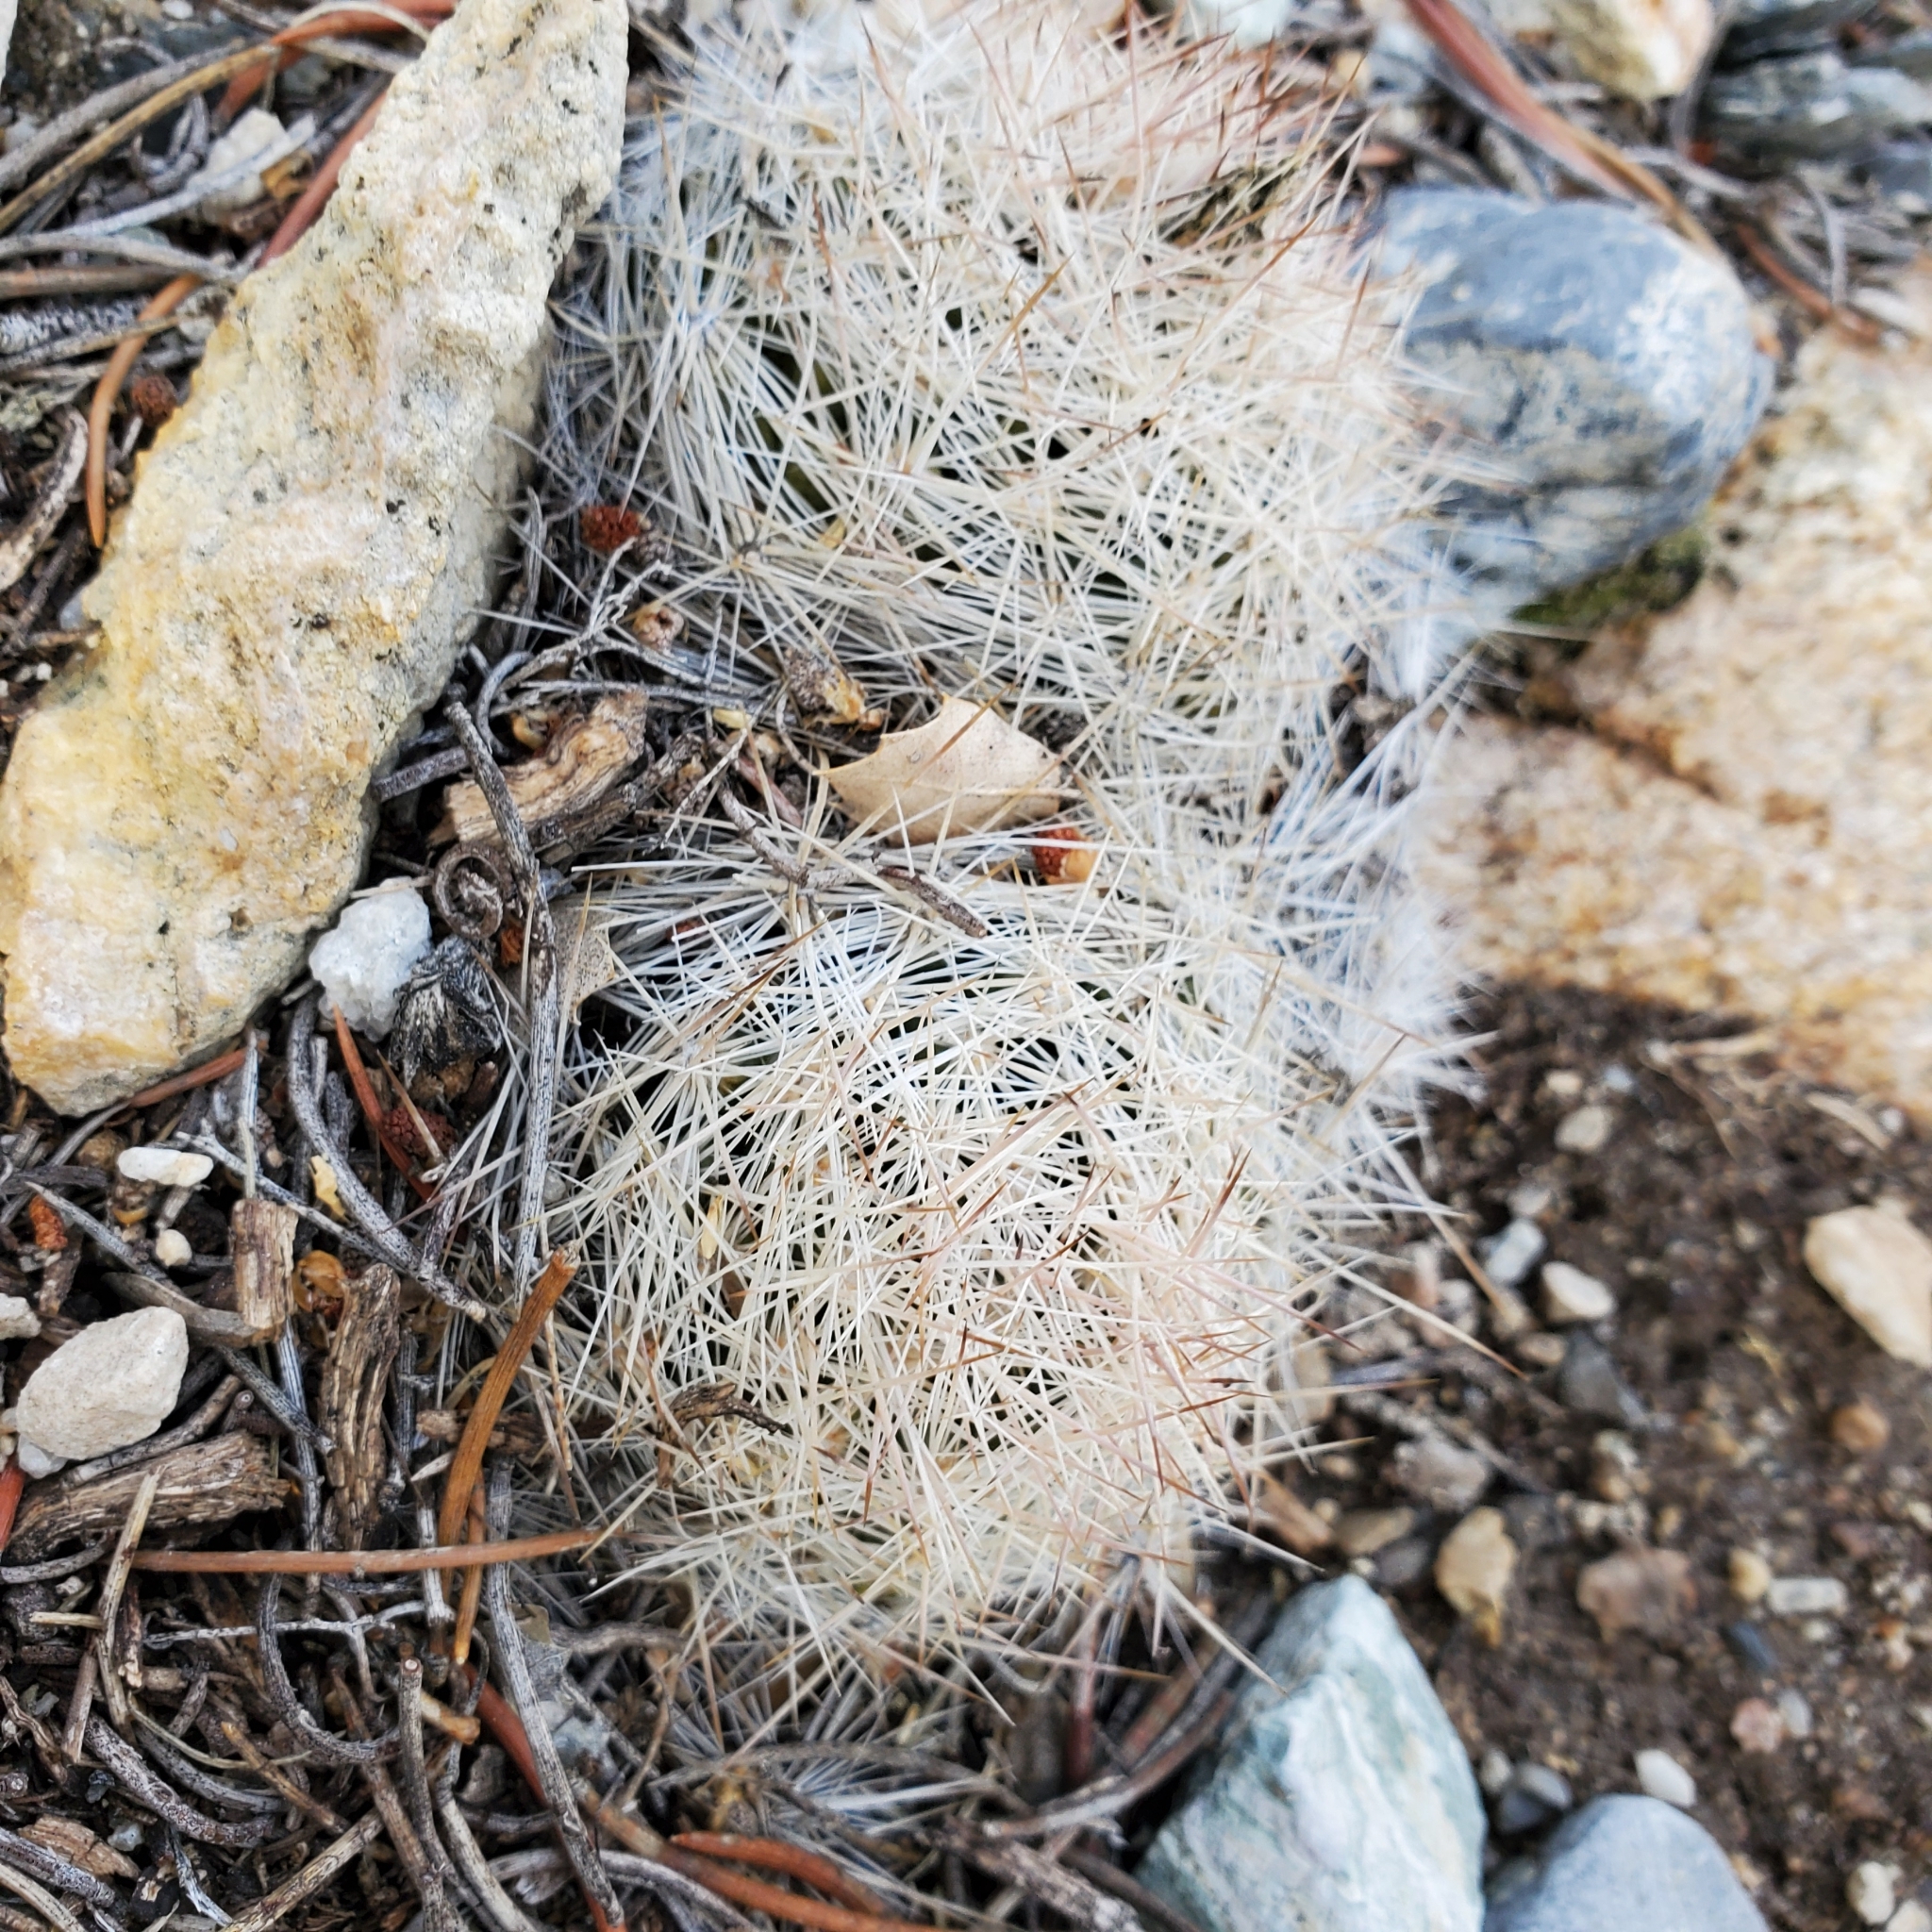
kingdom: Plantae
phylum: Tracheophyta
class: Magnoliopsida
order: Caryophyllales
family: Cactaceae
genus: Pelecyphora
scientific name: Pelecyphora vivipara
